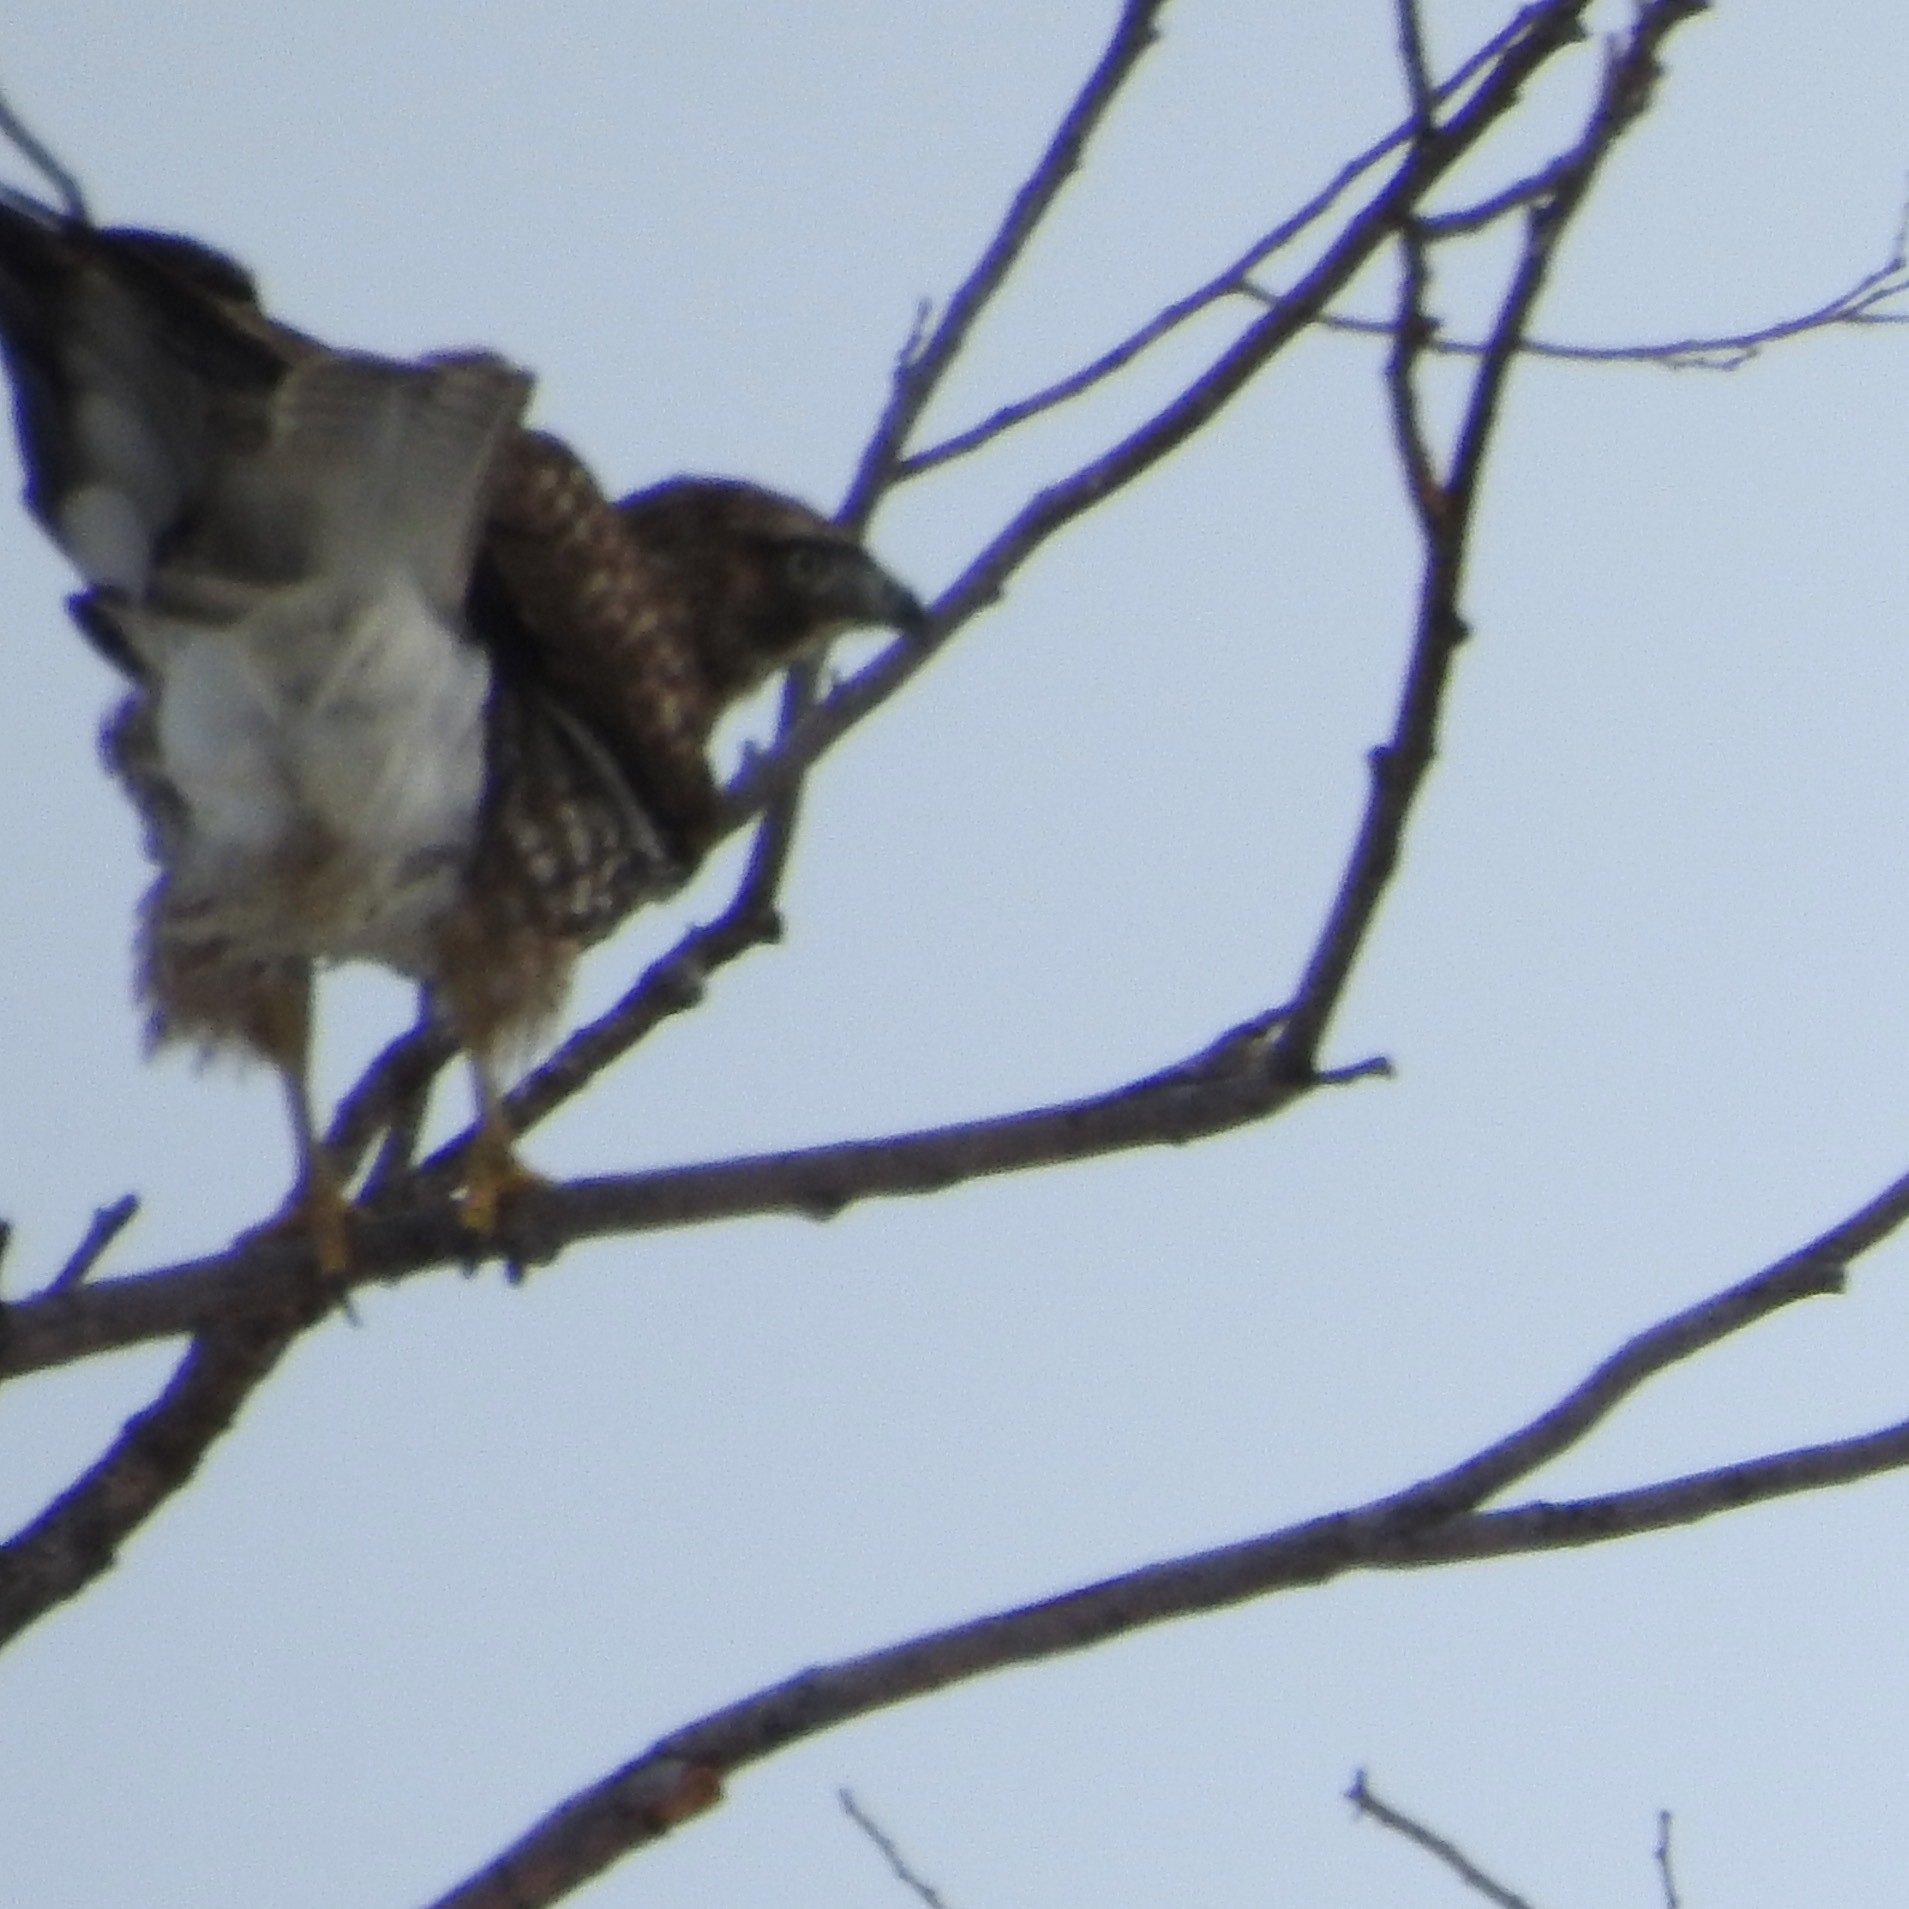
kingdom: Animalia
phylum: Chordata
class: Aves
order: Accipitriformes
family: Accipitridae
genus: Buteo
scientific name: Buteo jamaicensis
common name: Red-tailed hawk
